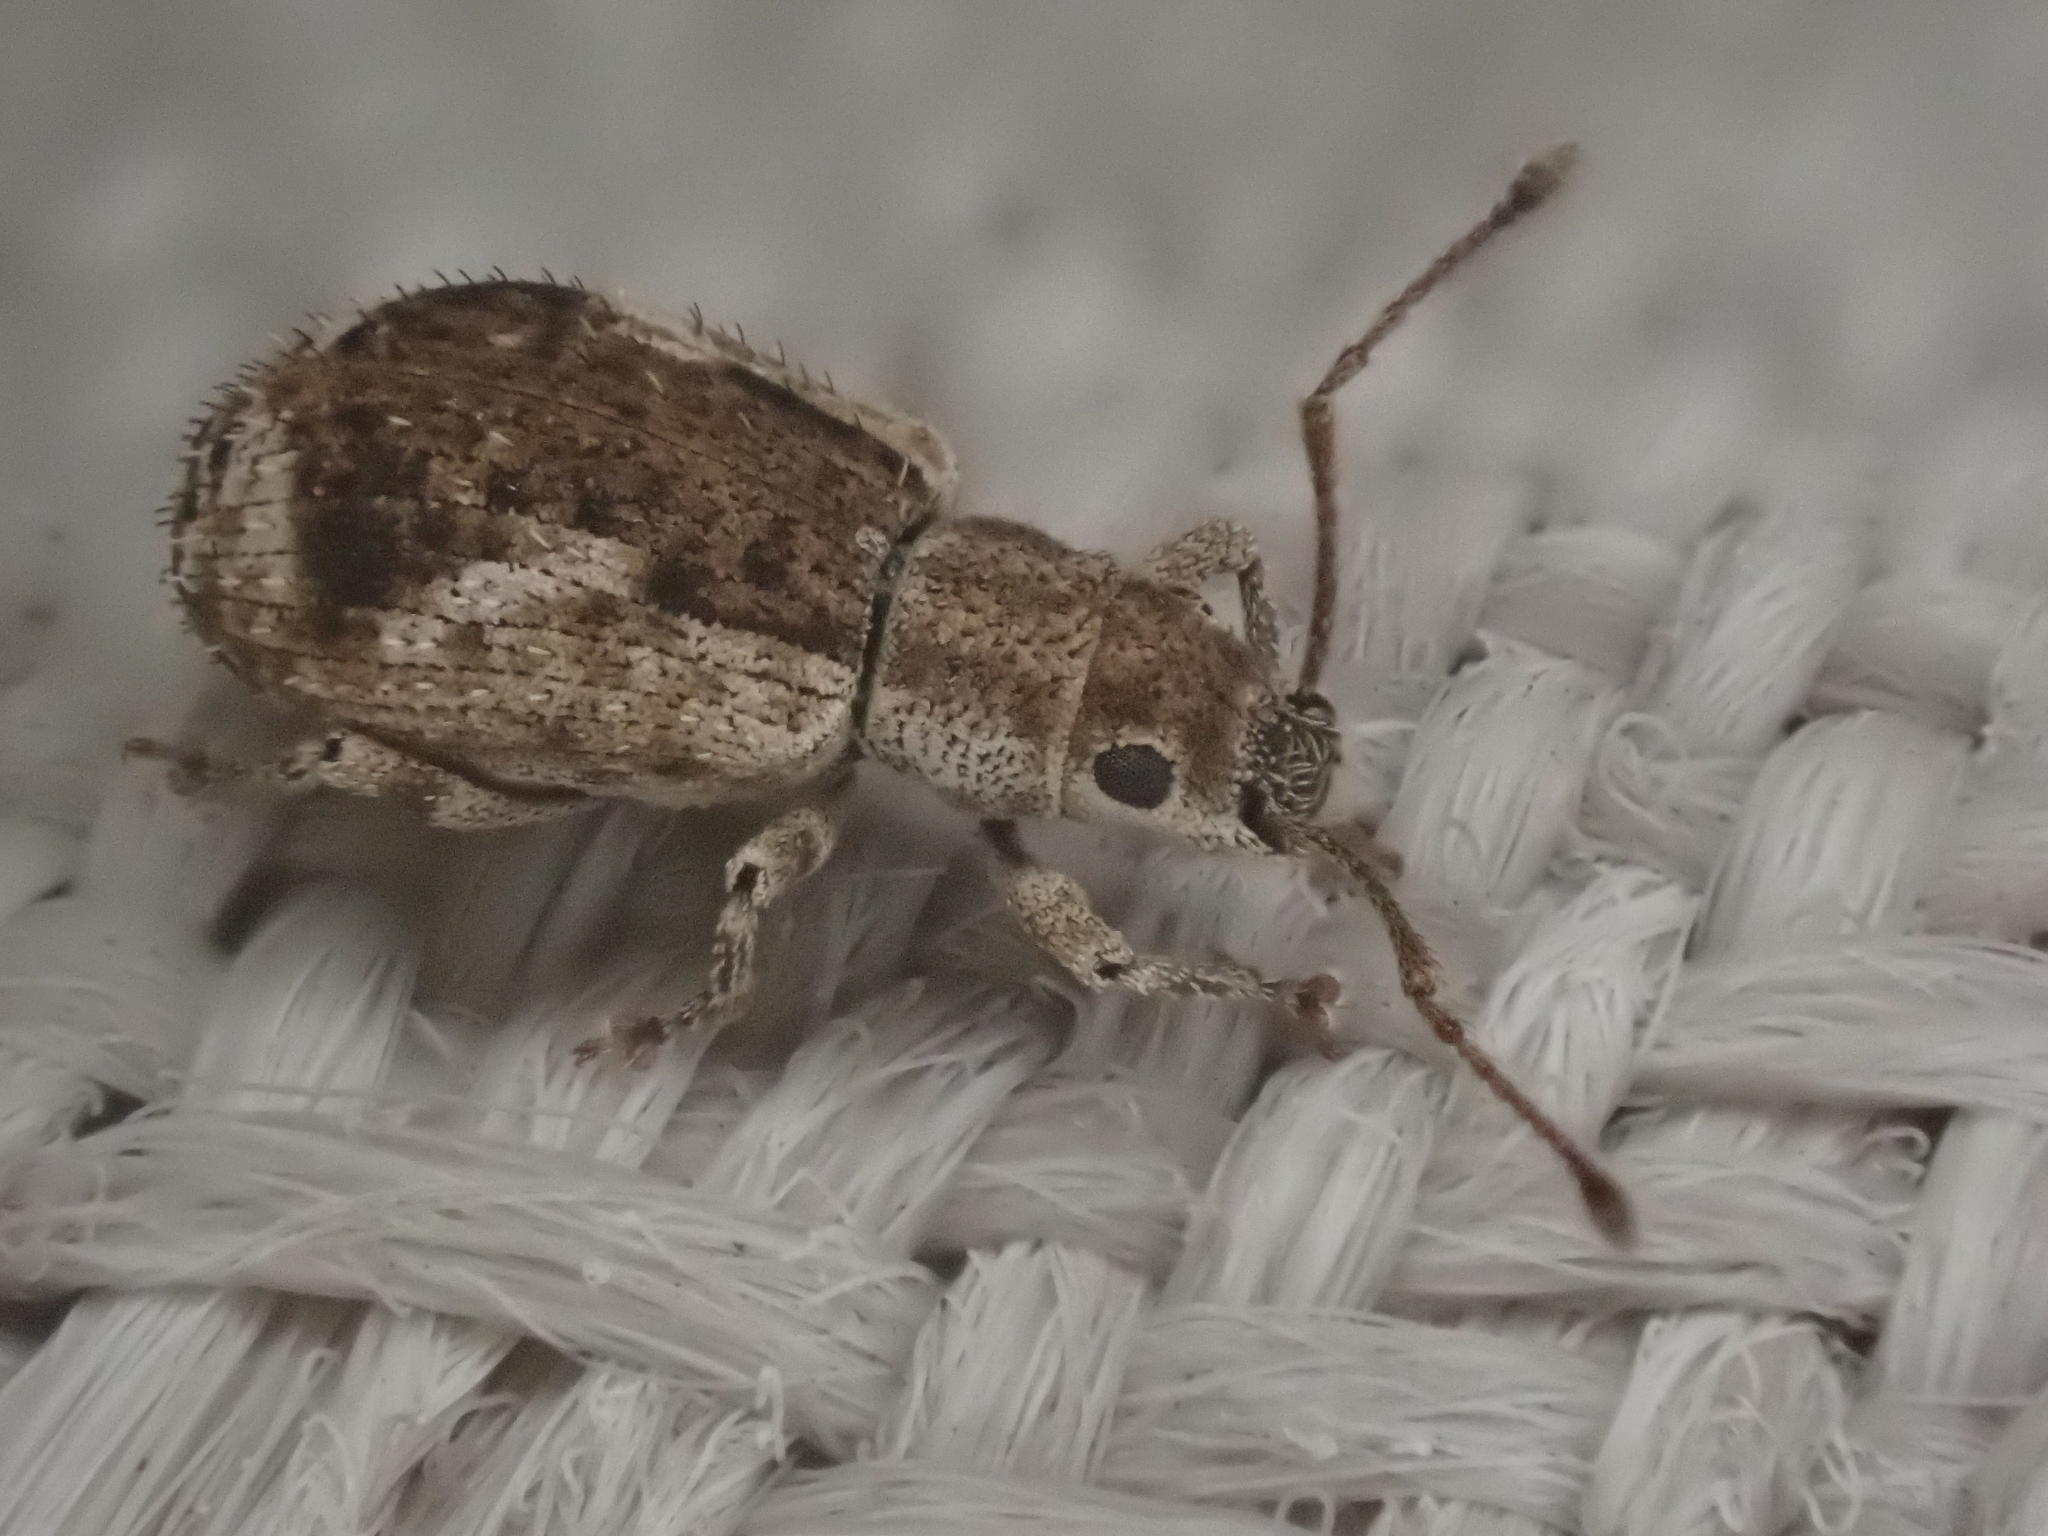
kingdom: Animalia
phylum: Arthropoda
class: Insecta
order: Coleoptera
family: Curculionidae
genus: Pseudoedophrys
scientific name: Pseudoedophrys hilleri
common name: Weevil
